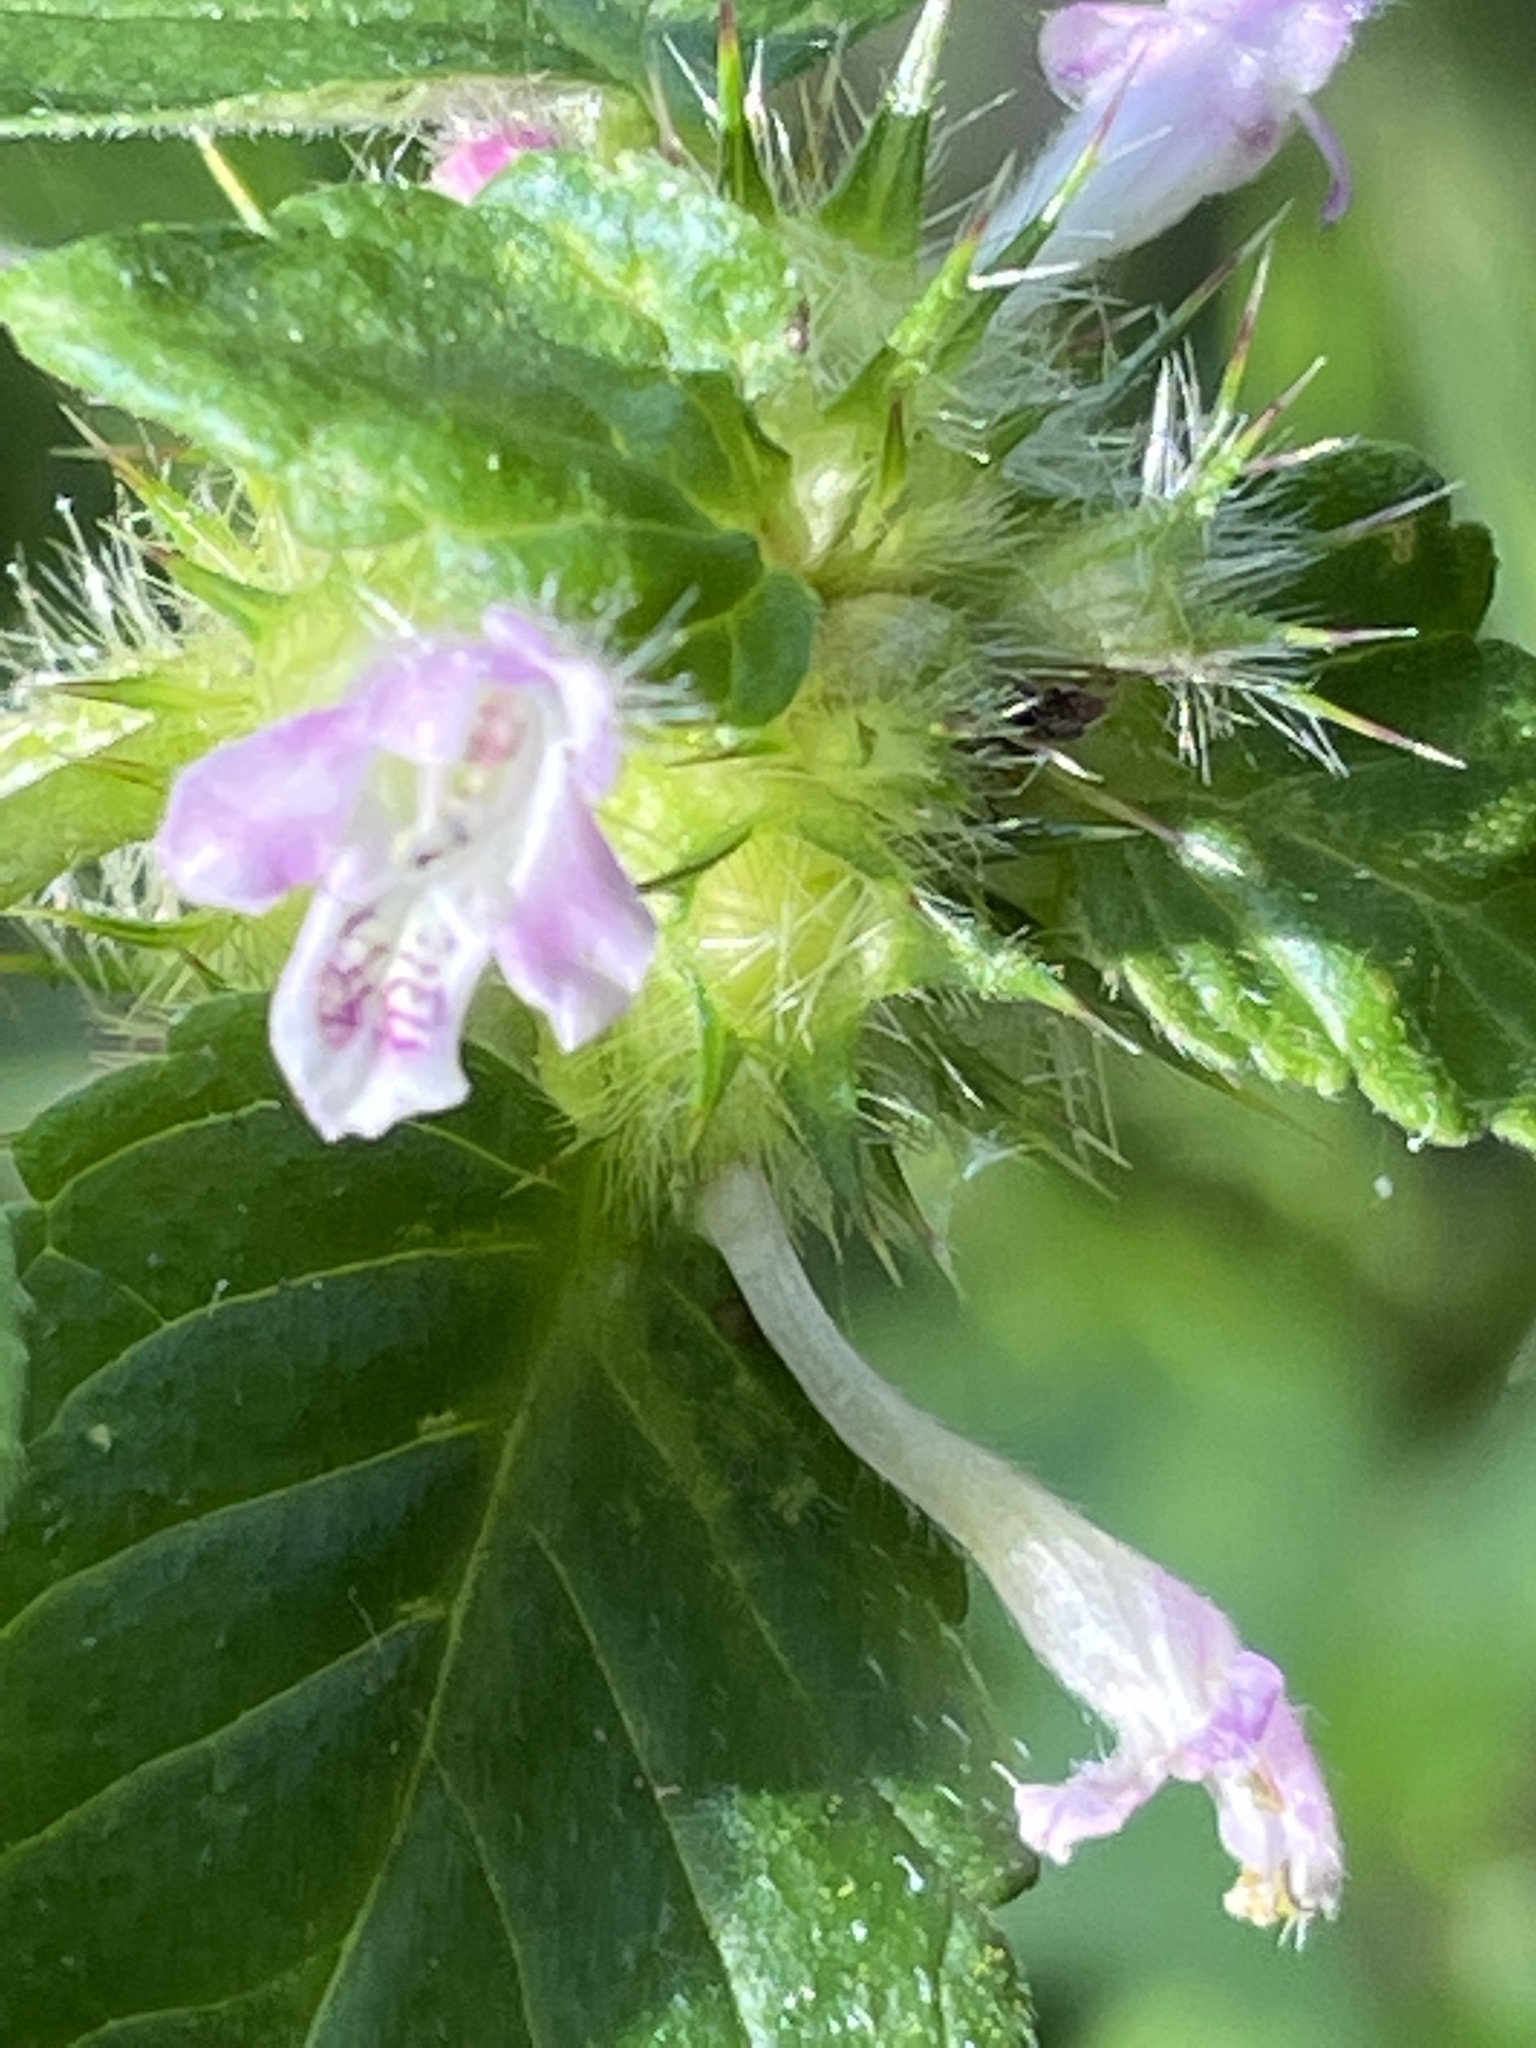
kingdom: Plantae
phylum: Tracheophyta
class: Magnoliopsida
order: Lamiales
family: Lamiaceae
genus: Galeopsis
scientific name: Galeopsis bifida
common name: Bifid hemp-nettle
